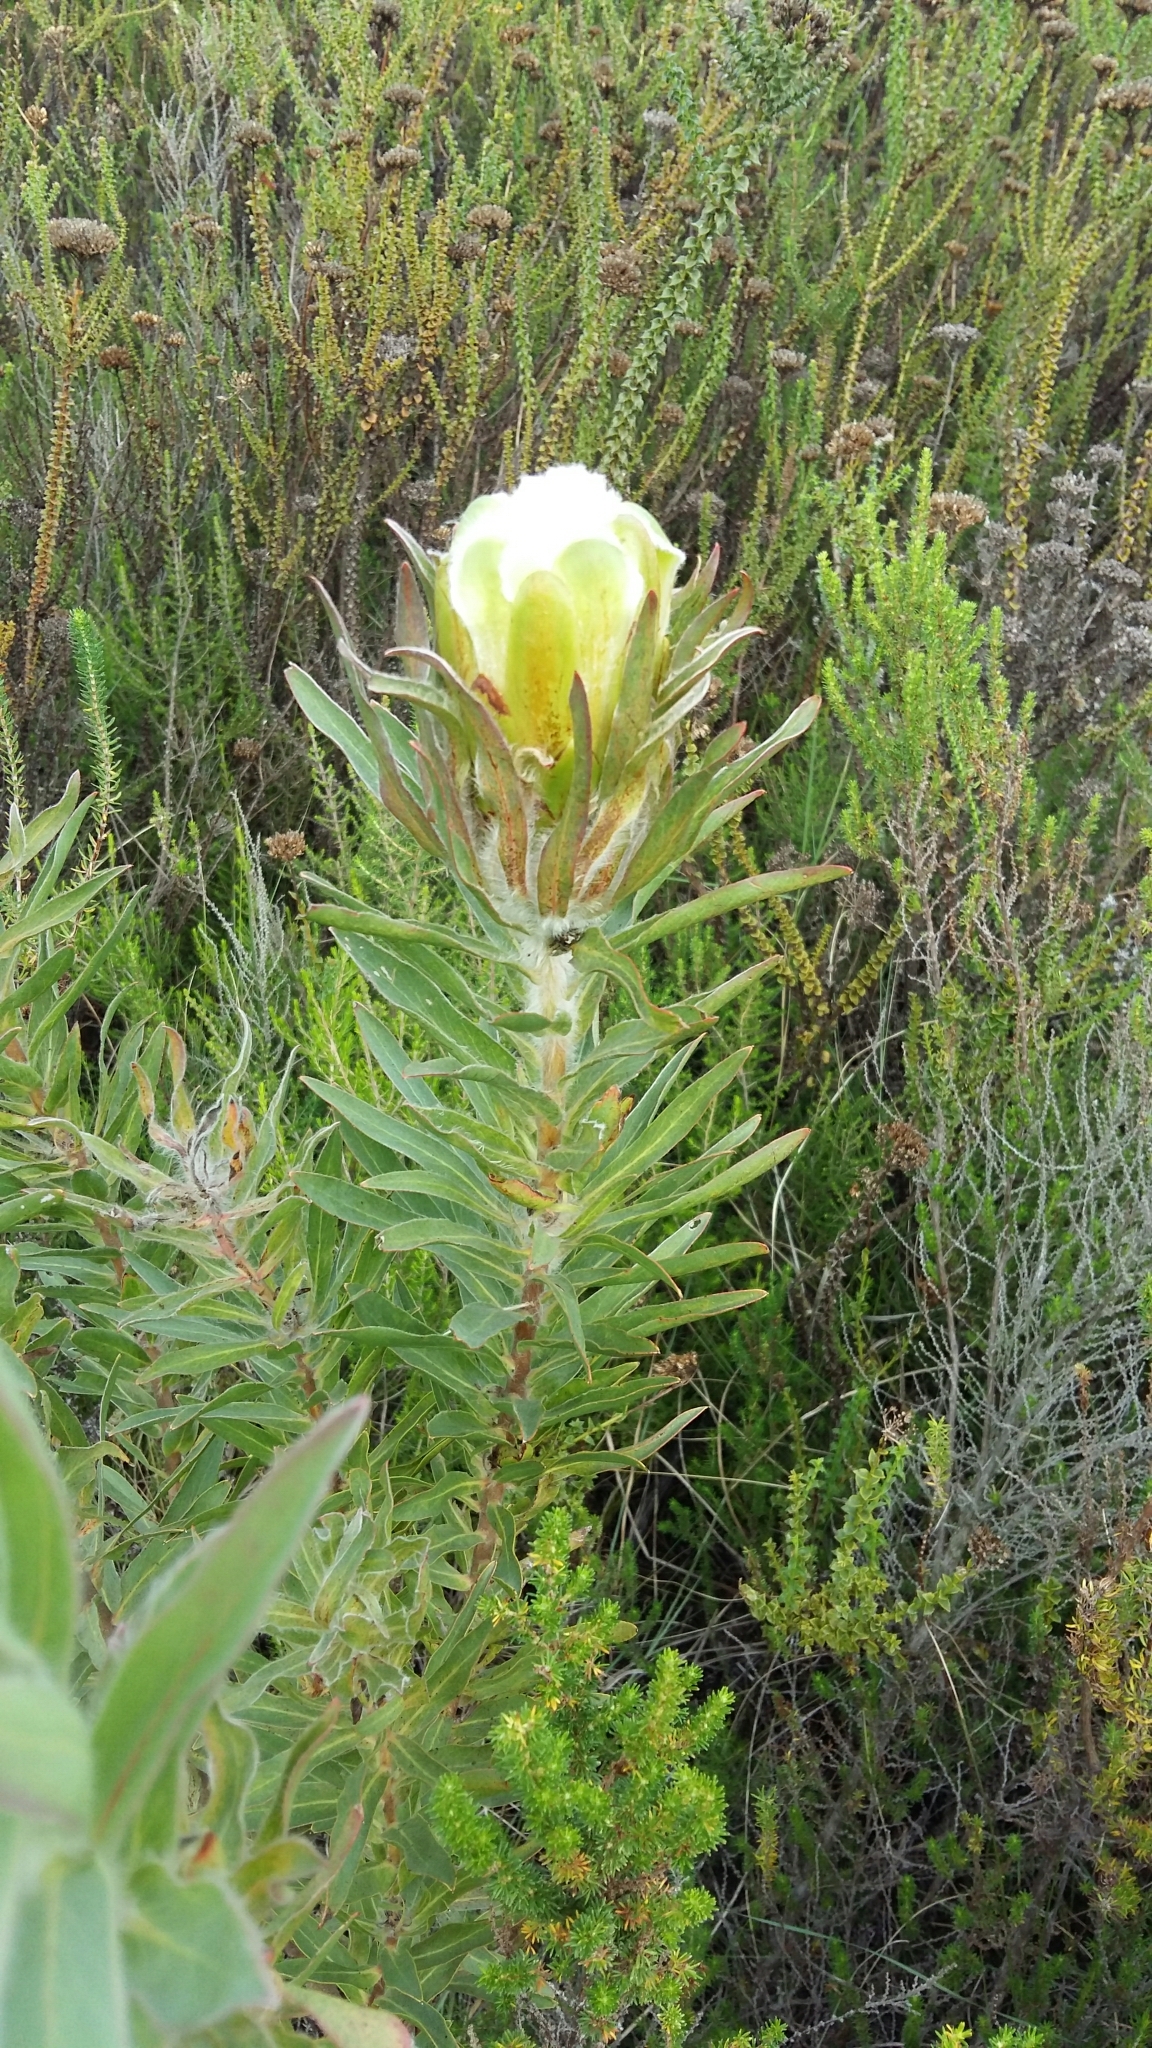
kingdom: Plantae
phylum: Tracheophyta
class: Magnoliopsida
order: Proteales
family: Proteaceae
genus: Protea
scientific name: Protea coronata
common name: Green sugarbush
